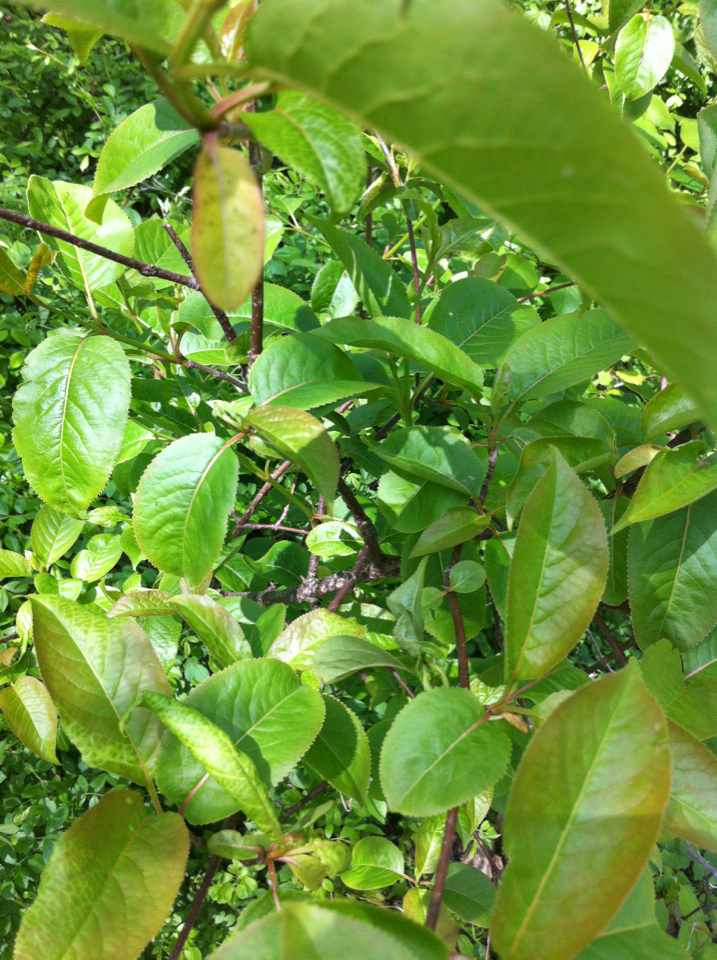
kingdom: Plantae
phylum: Tracheophyta
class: Magnoliopsida
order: Dipsacales
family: Viburnaceae
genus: Viburnum
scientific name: Viburnum cassinoides
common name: Swamp haw
